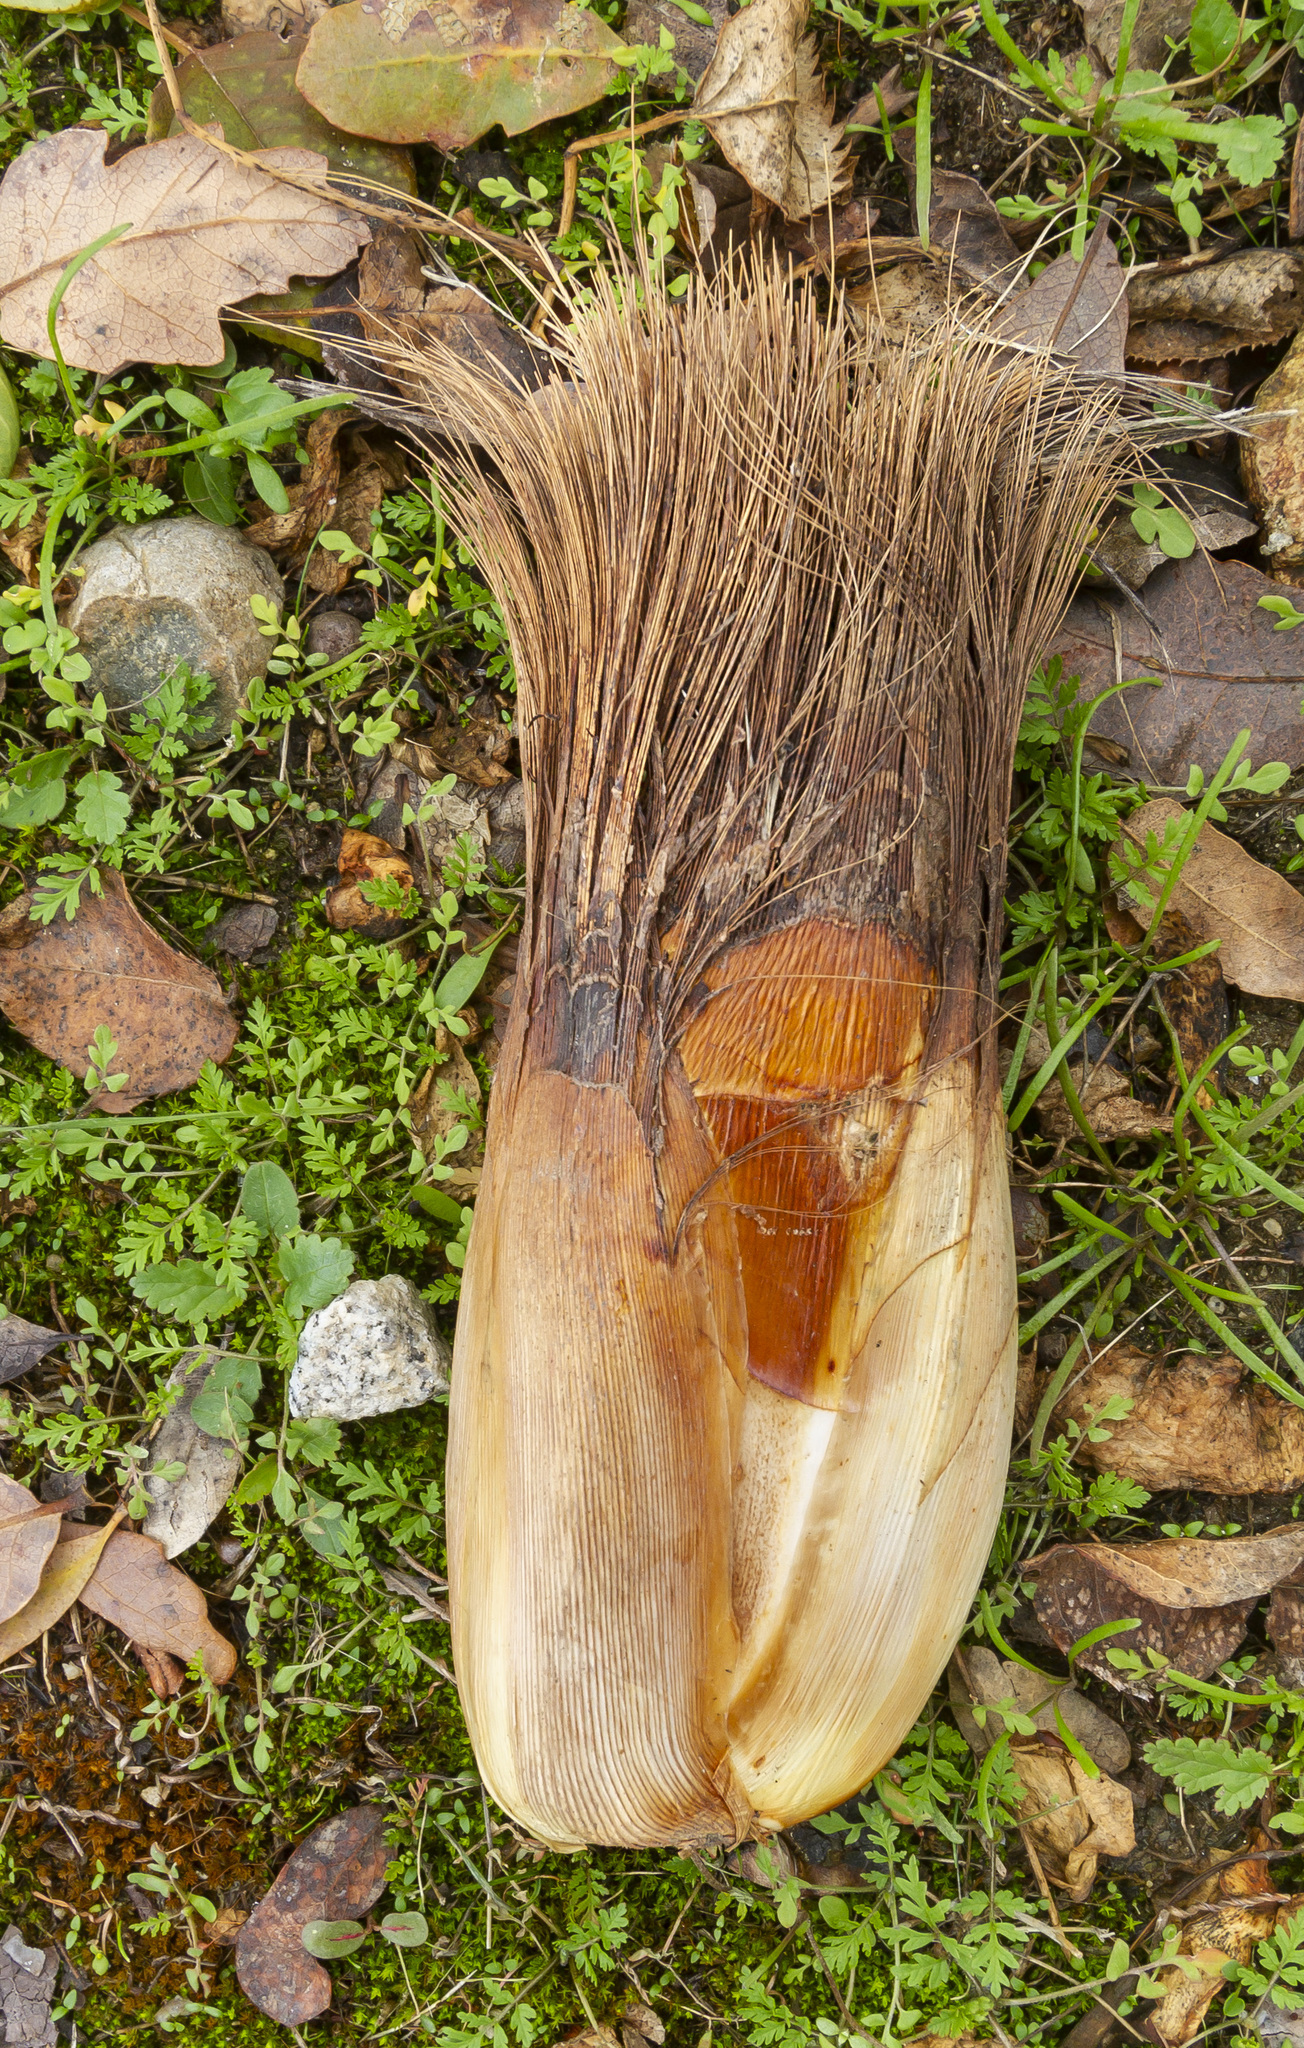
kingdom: Plantae
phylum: Tracheophyta
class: Liliopsida
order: Asparagales
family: Asparagaceae
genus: Chlorogalum
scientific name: Chlorogalum pomeridianum
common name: Amole
